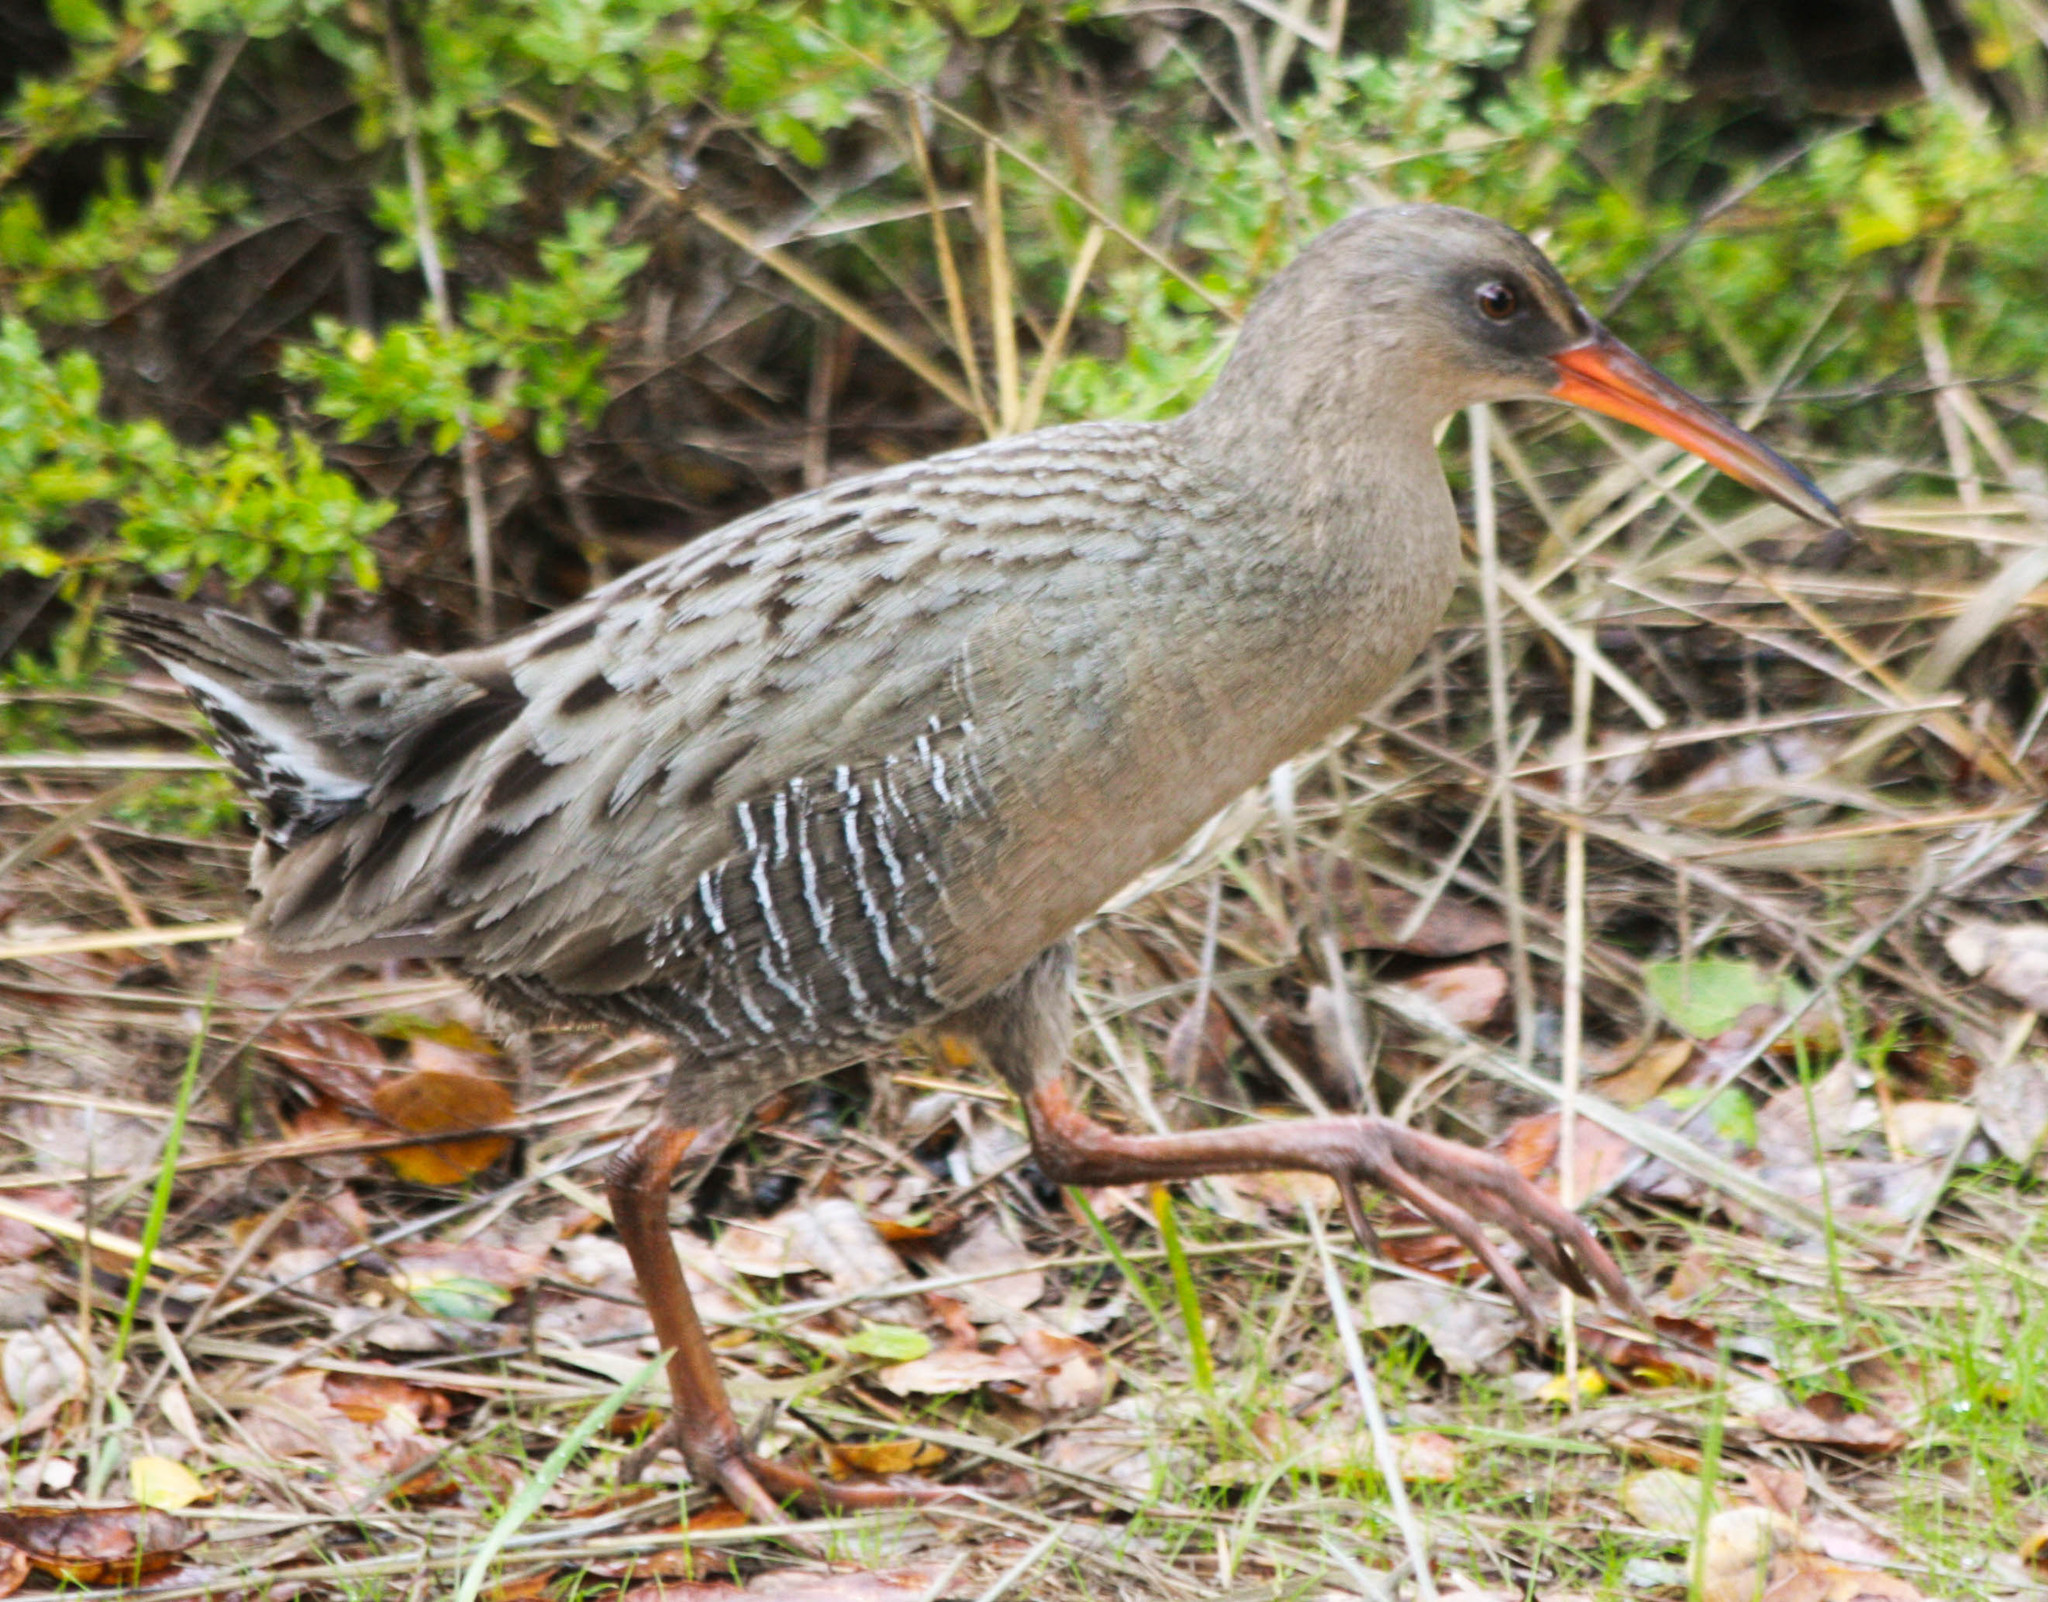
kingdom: Animalia
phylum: Chordata
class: Aves
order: Gruiformes
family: Rallidae
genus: Rallus
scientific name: Rallus obsoletus
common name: Ridgway's rail
